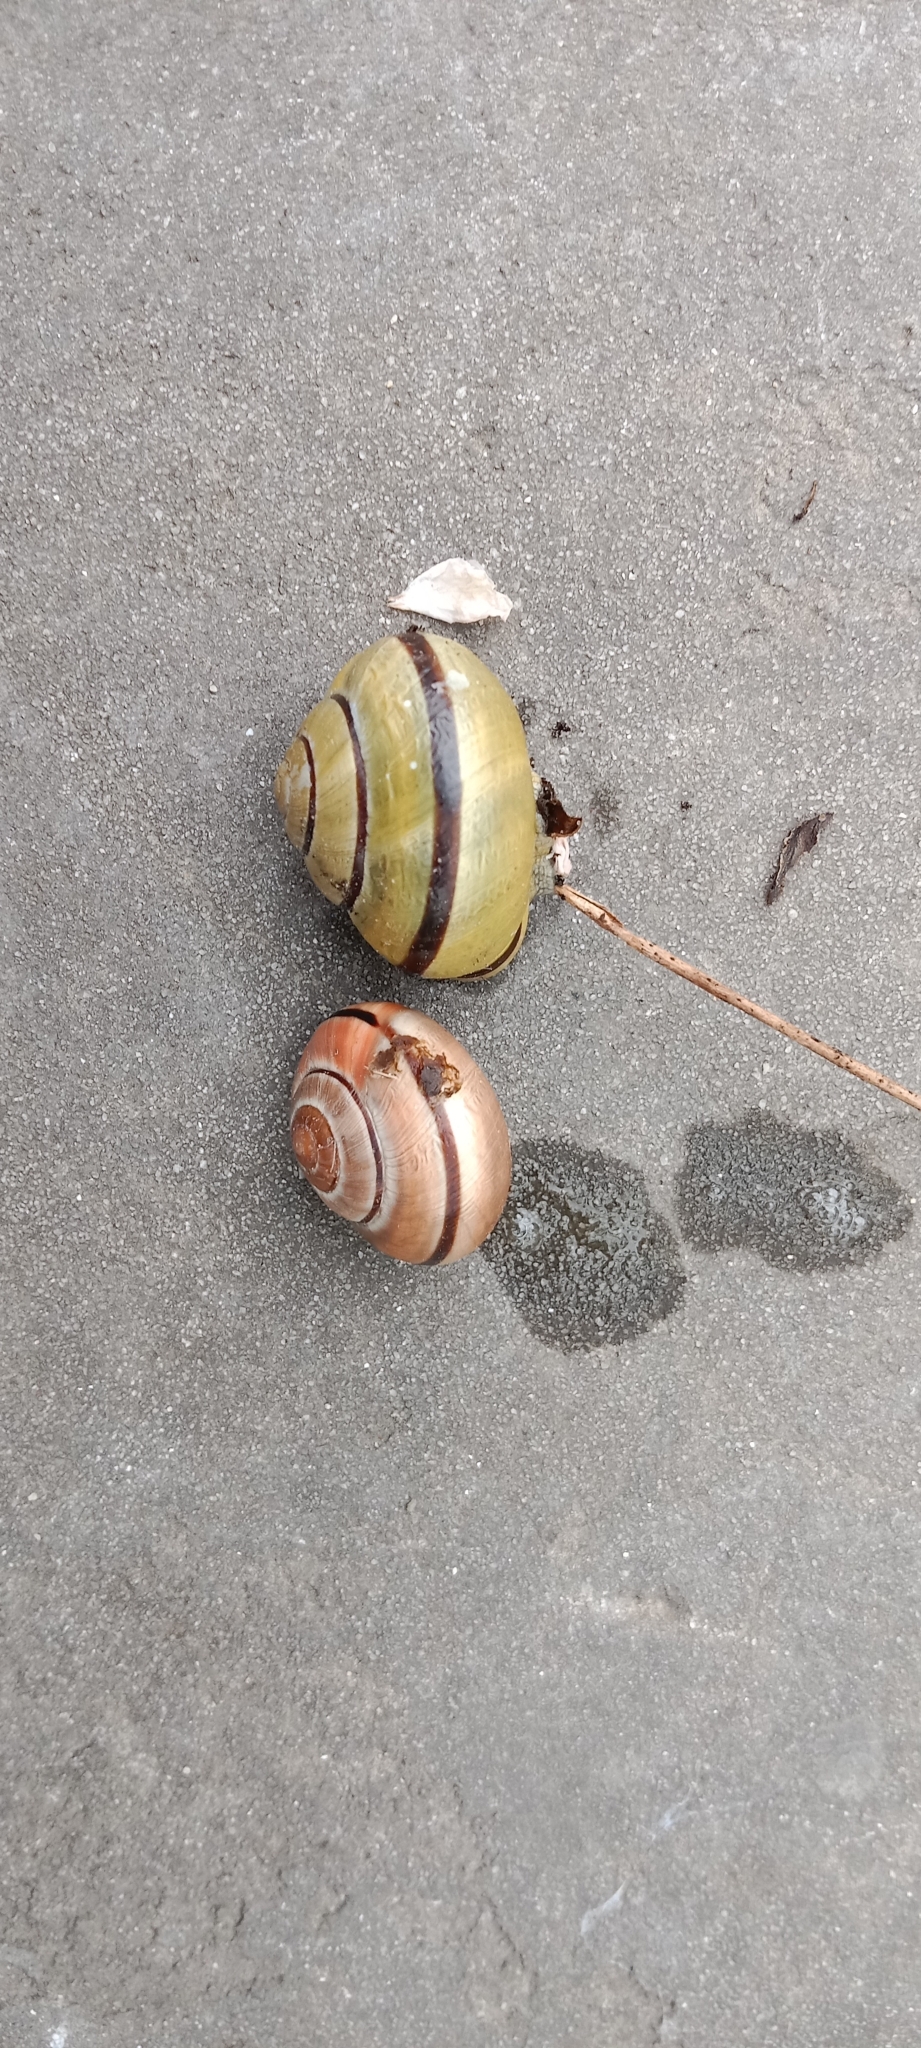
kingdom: Animalia
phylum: Mollusca
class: Gastropoda
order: Stylommatophora
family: Helicidae
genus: Cepaea
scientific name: Cepaea nemoralis
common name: Grovesnail
